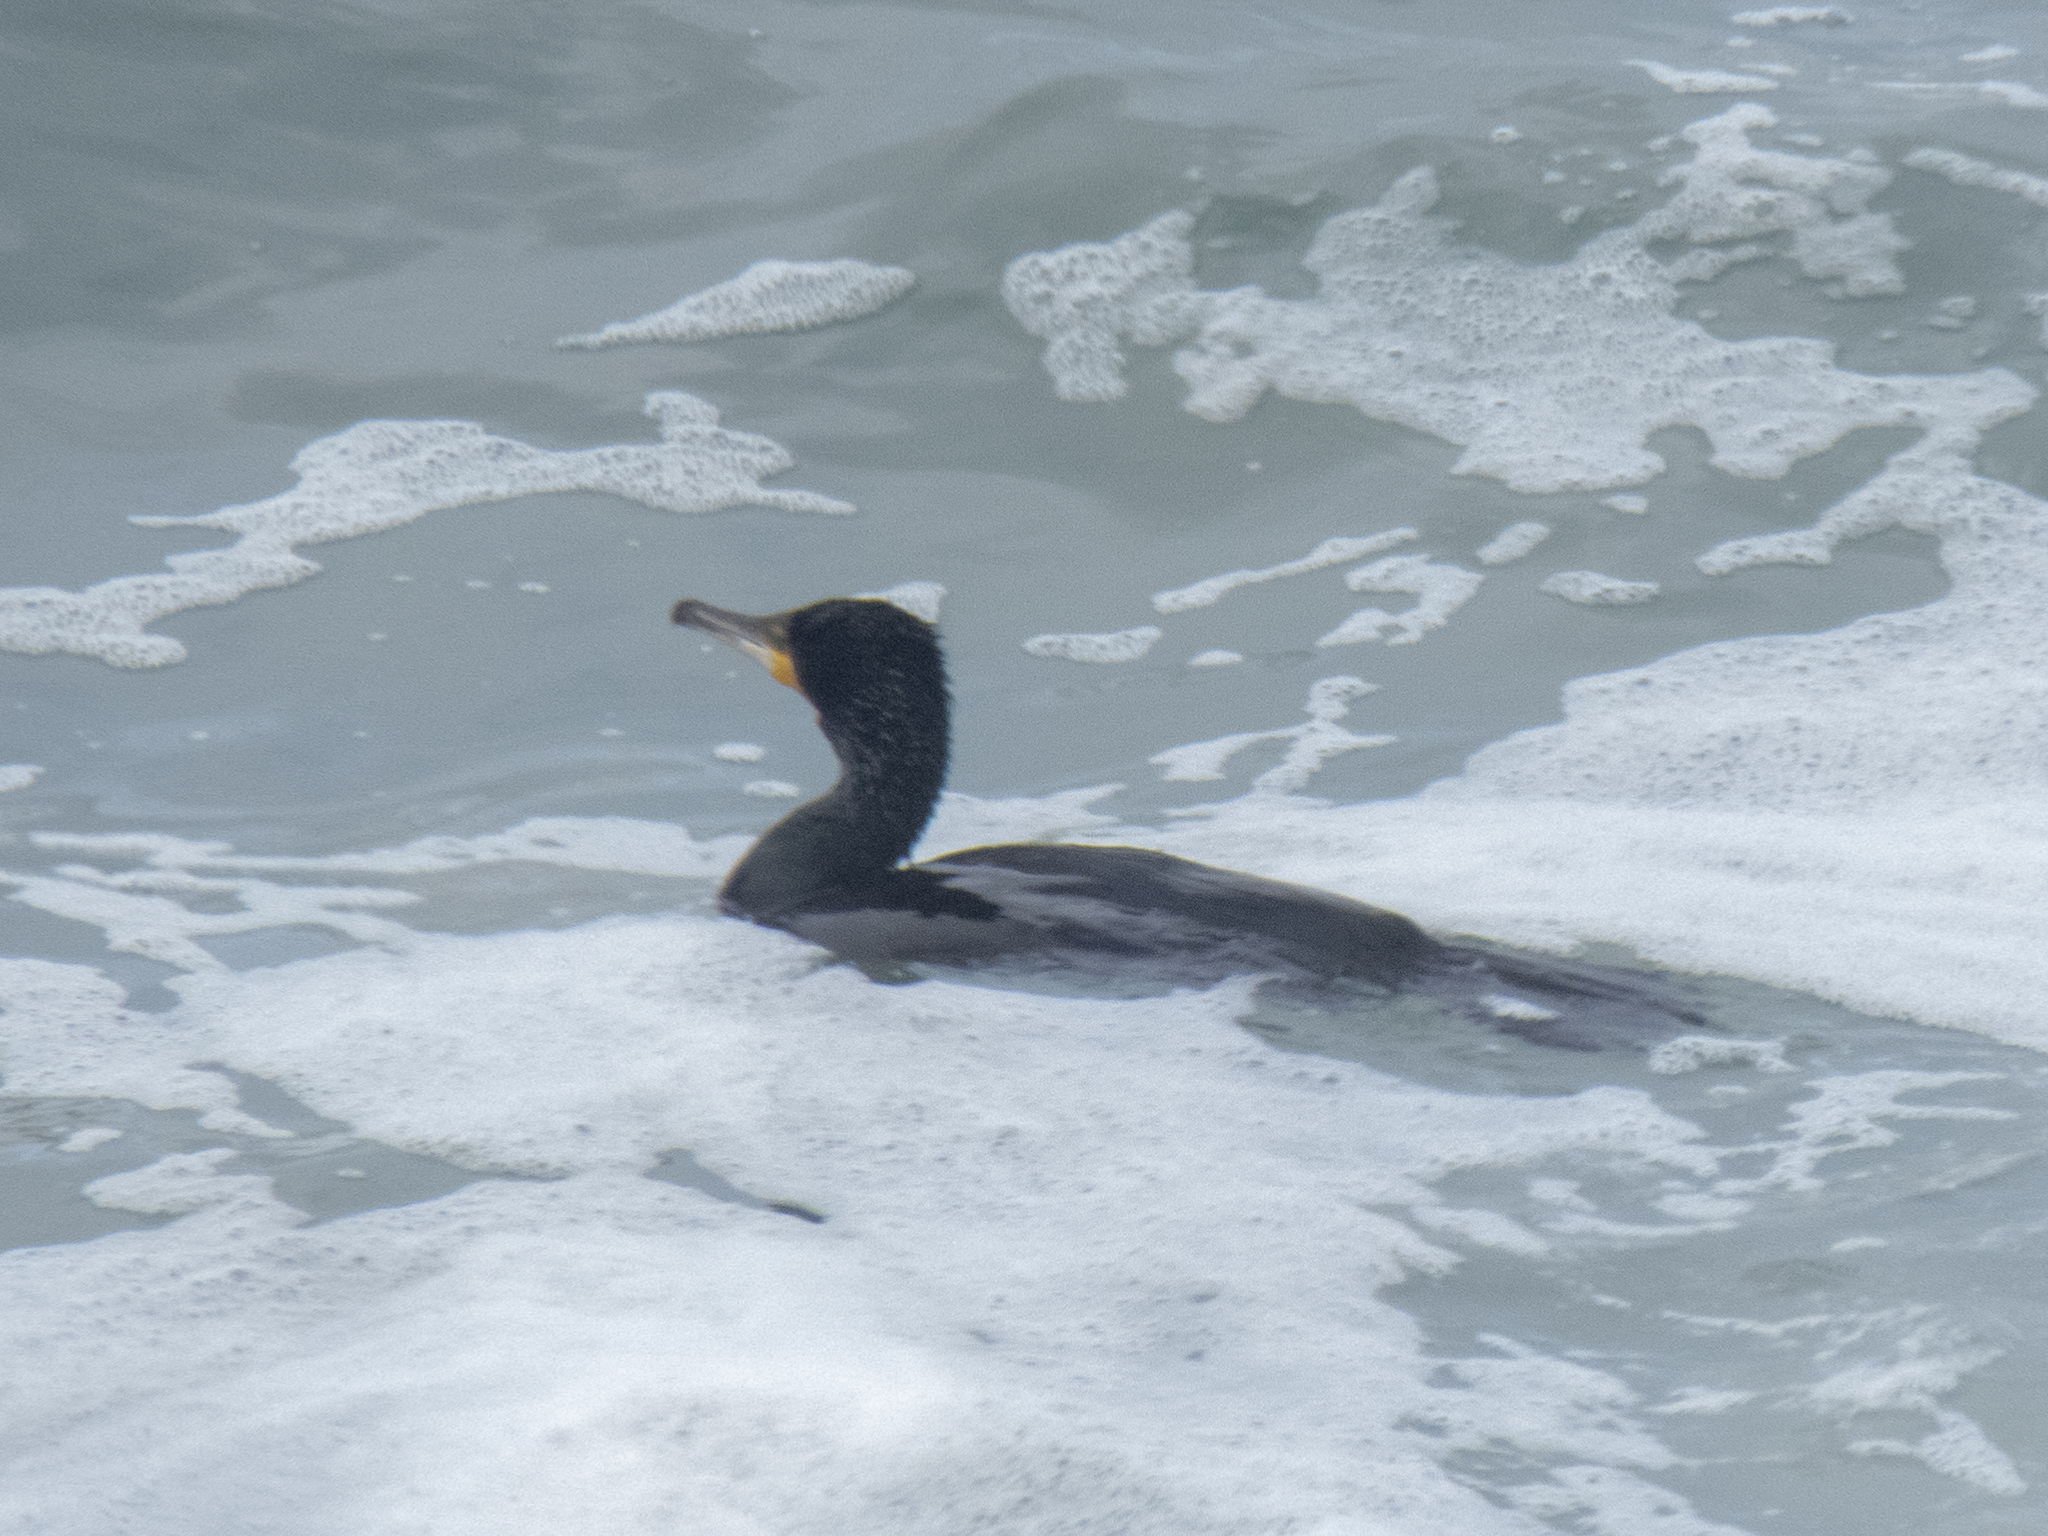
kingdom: Animalia
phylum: Chordata
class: Aves
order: Suliformes
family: Phalacrocoracidae
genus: Phalacrocorax
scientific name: Phalacrocorax carbo
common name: Great cormorant
